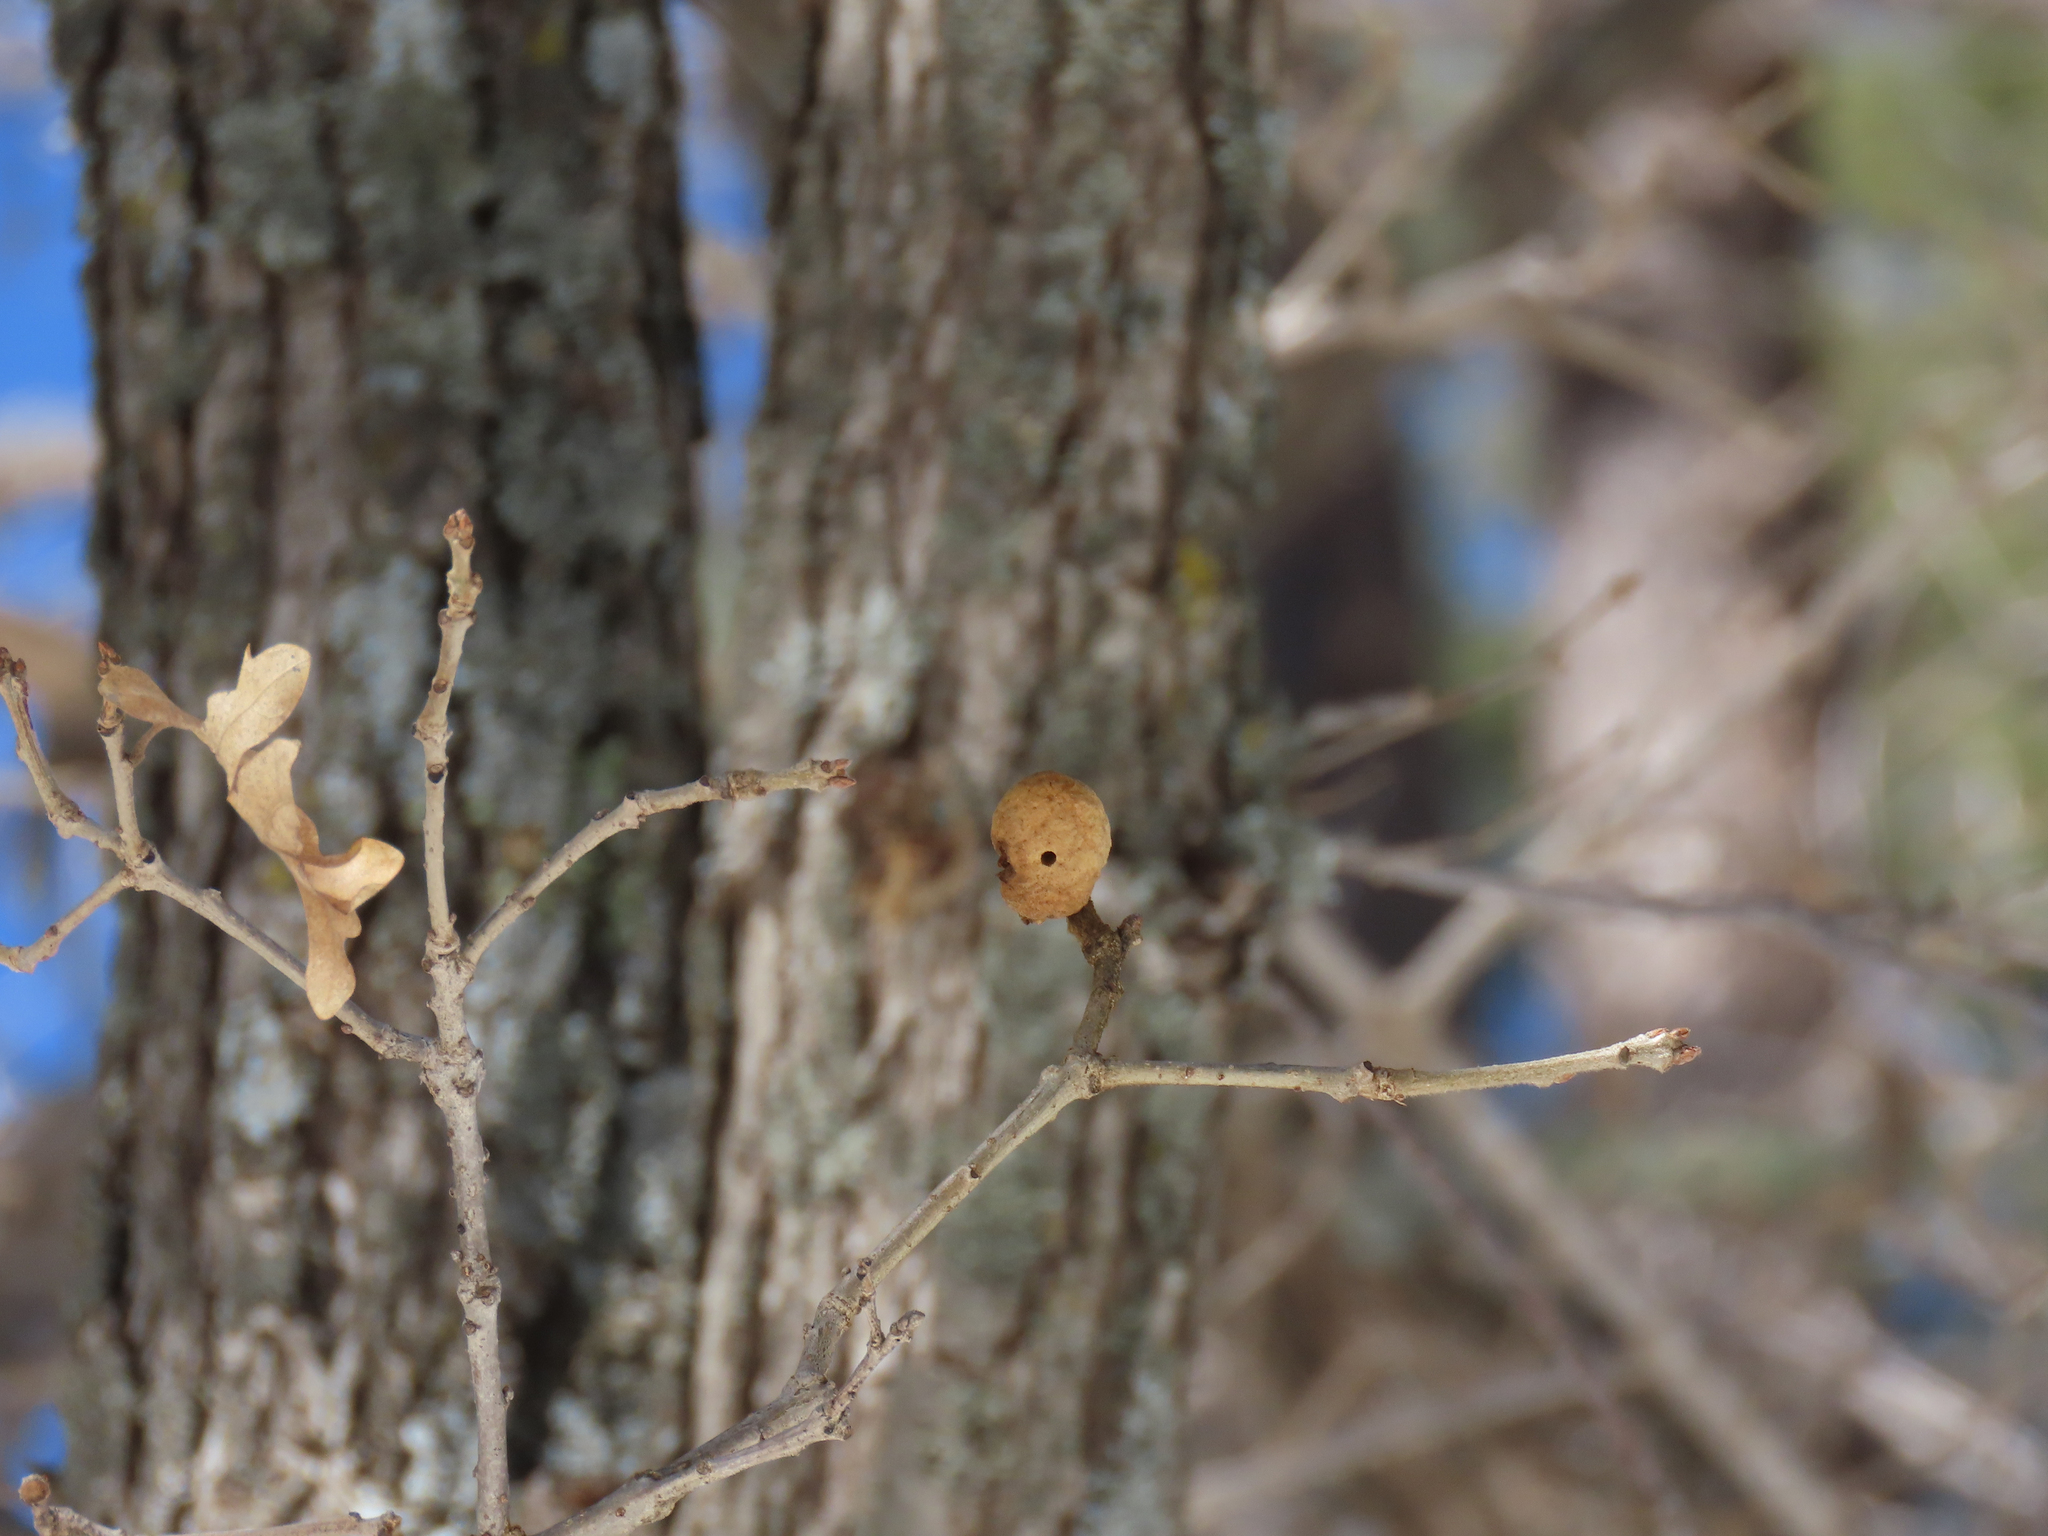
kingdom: Animalia
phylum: Arthropoda
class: Insecta
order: Hymenoptera
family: Cynipidae
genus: Disholcaspis
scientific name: Disholcaspis
